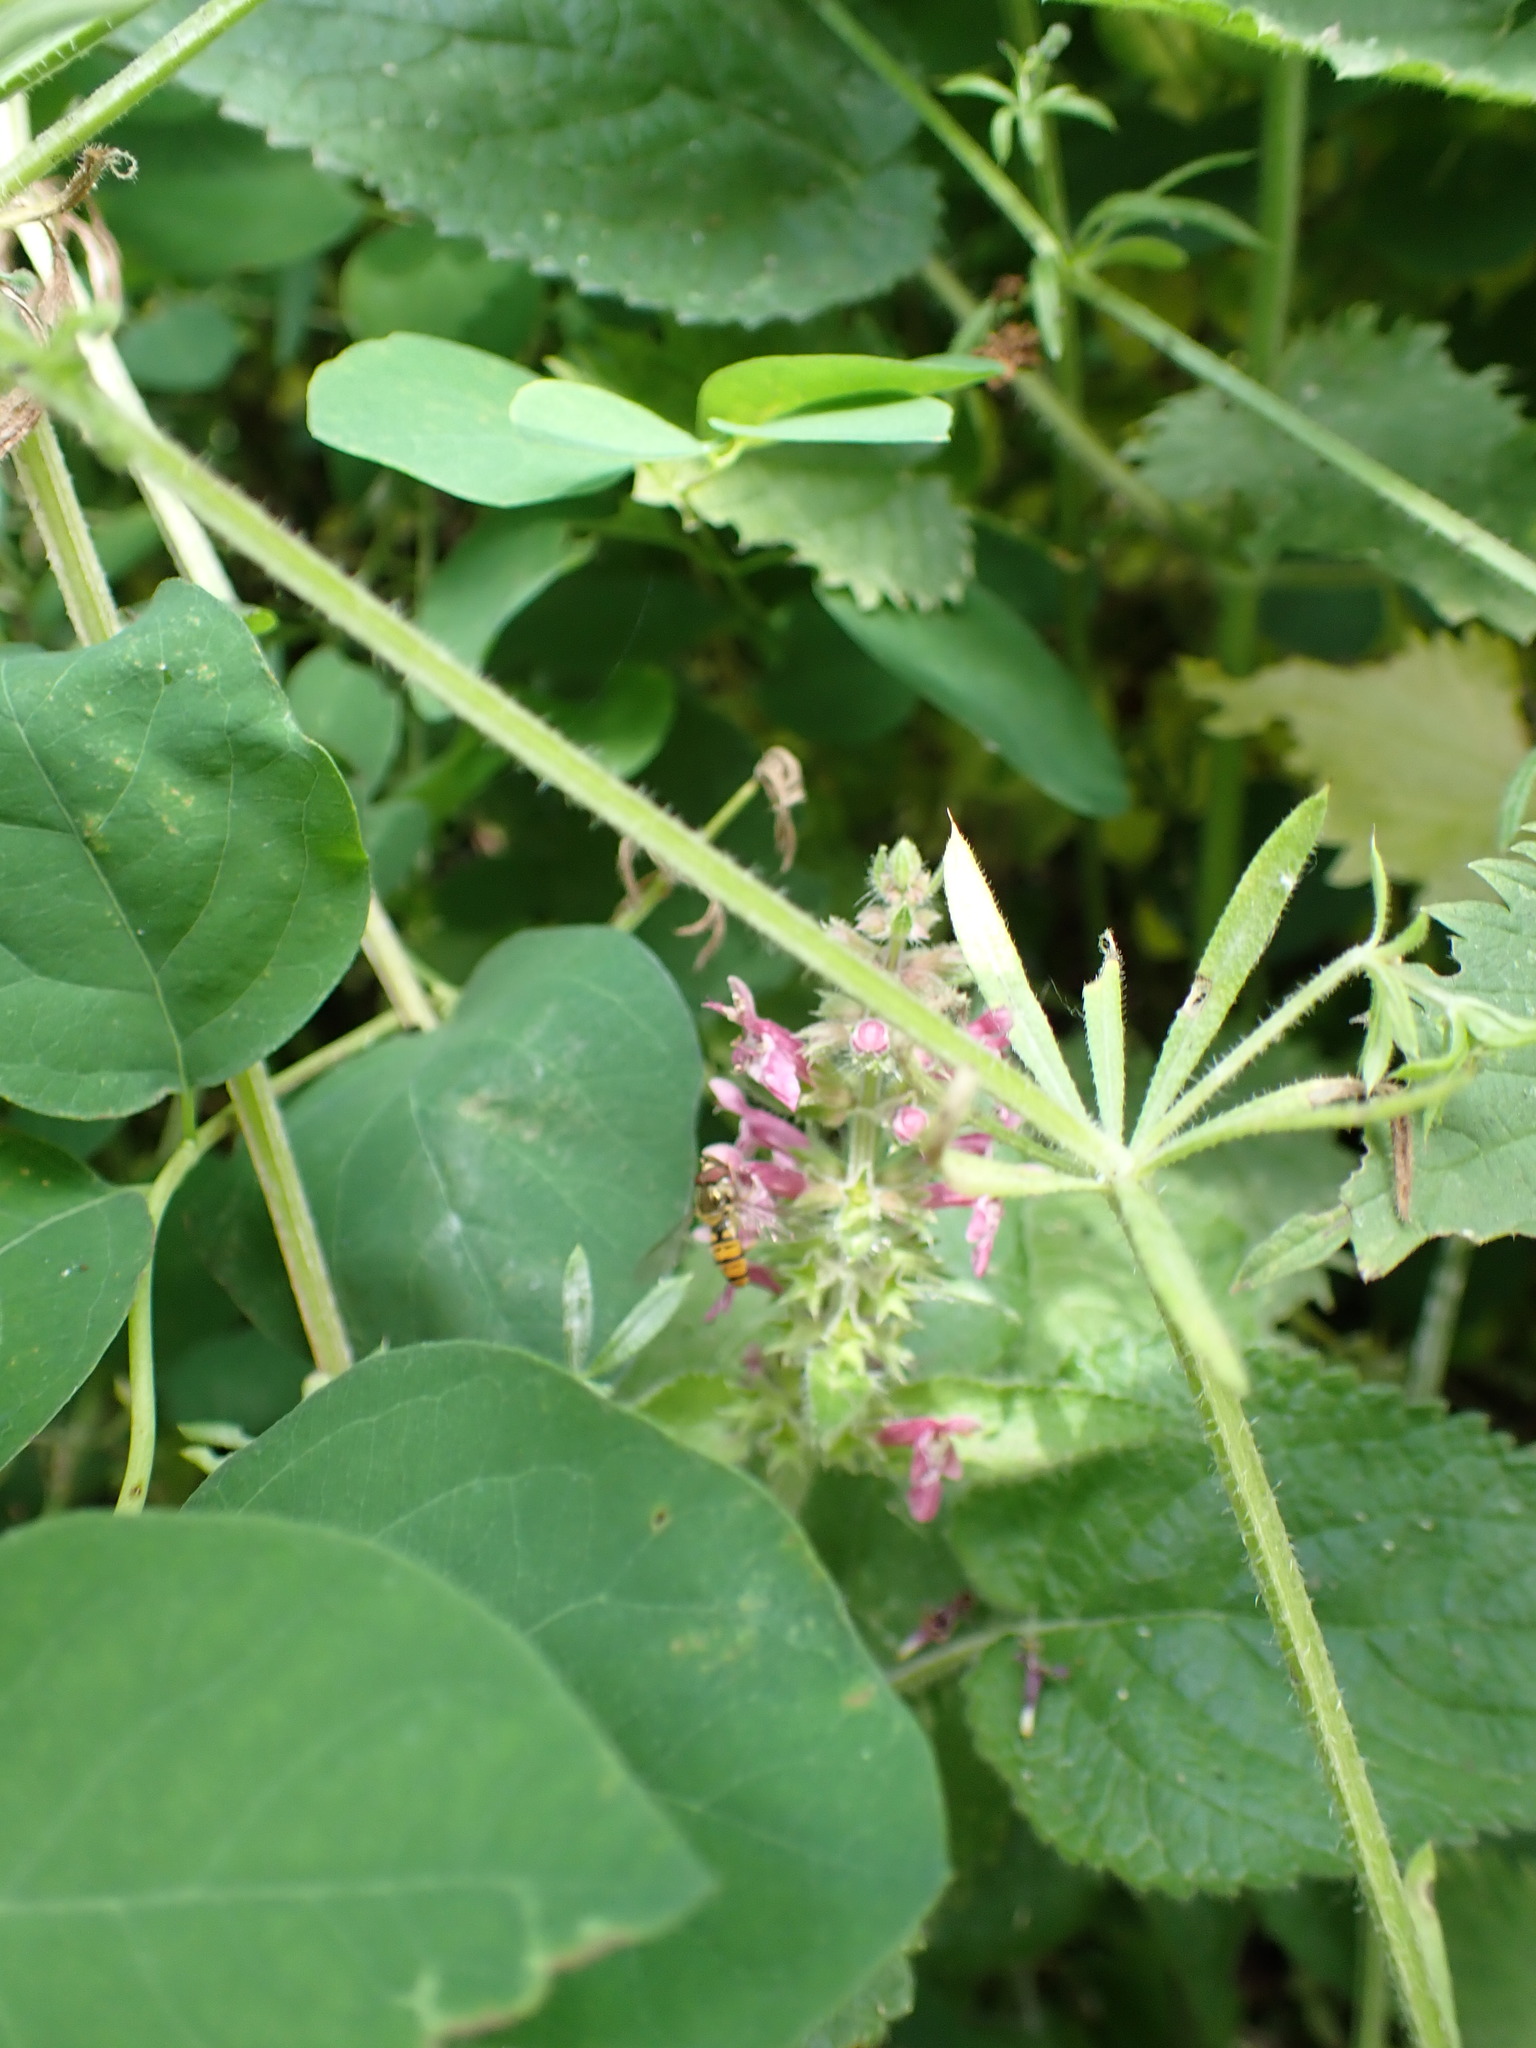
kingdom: Plantae
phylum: Tracheophyta
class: Magnoliopsida
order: Lamiales
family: Lamiaceae
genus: Stachys
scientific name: Stachys sylvatica
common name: Hedge woundwort
